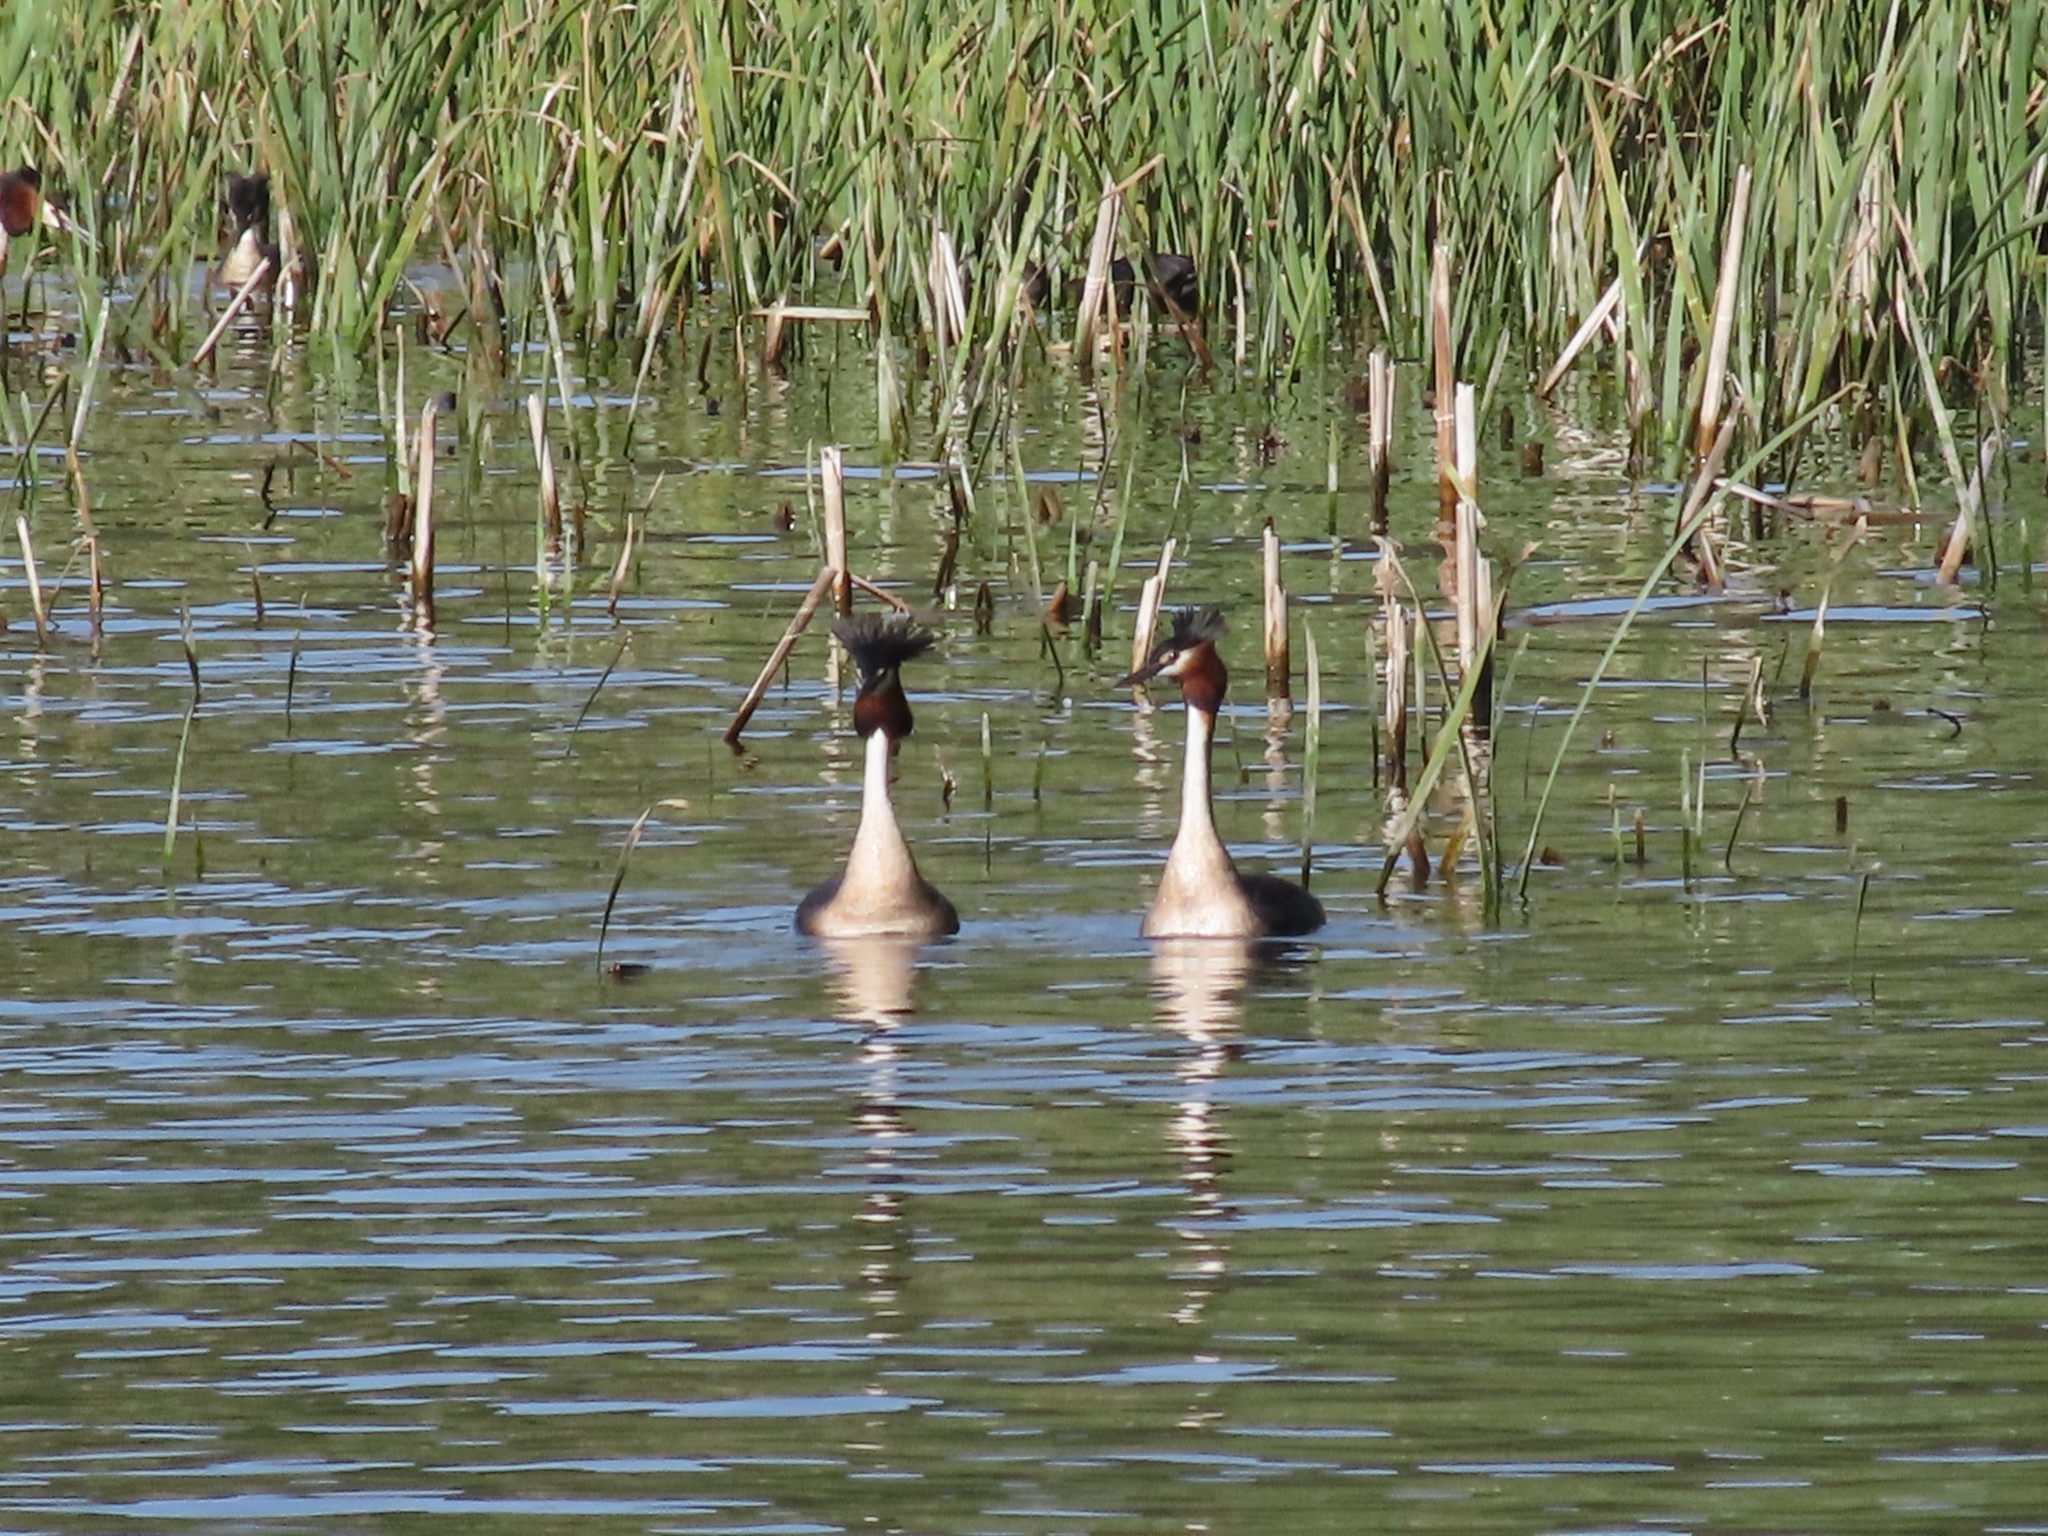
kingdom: Animalia
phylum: Chordata
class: Aves
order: Podicipediformes
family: Podicipedidae
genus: Podiceps
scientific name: Podiceps cristatus
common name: Great crested grebe
